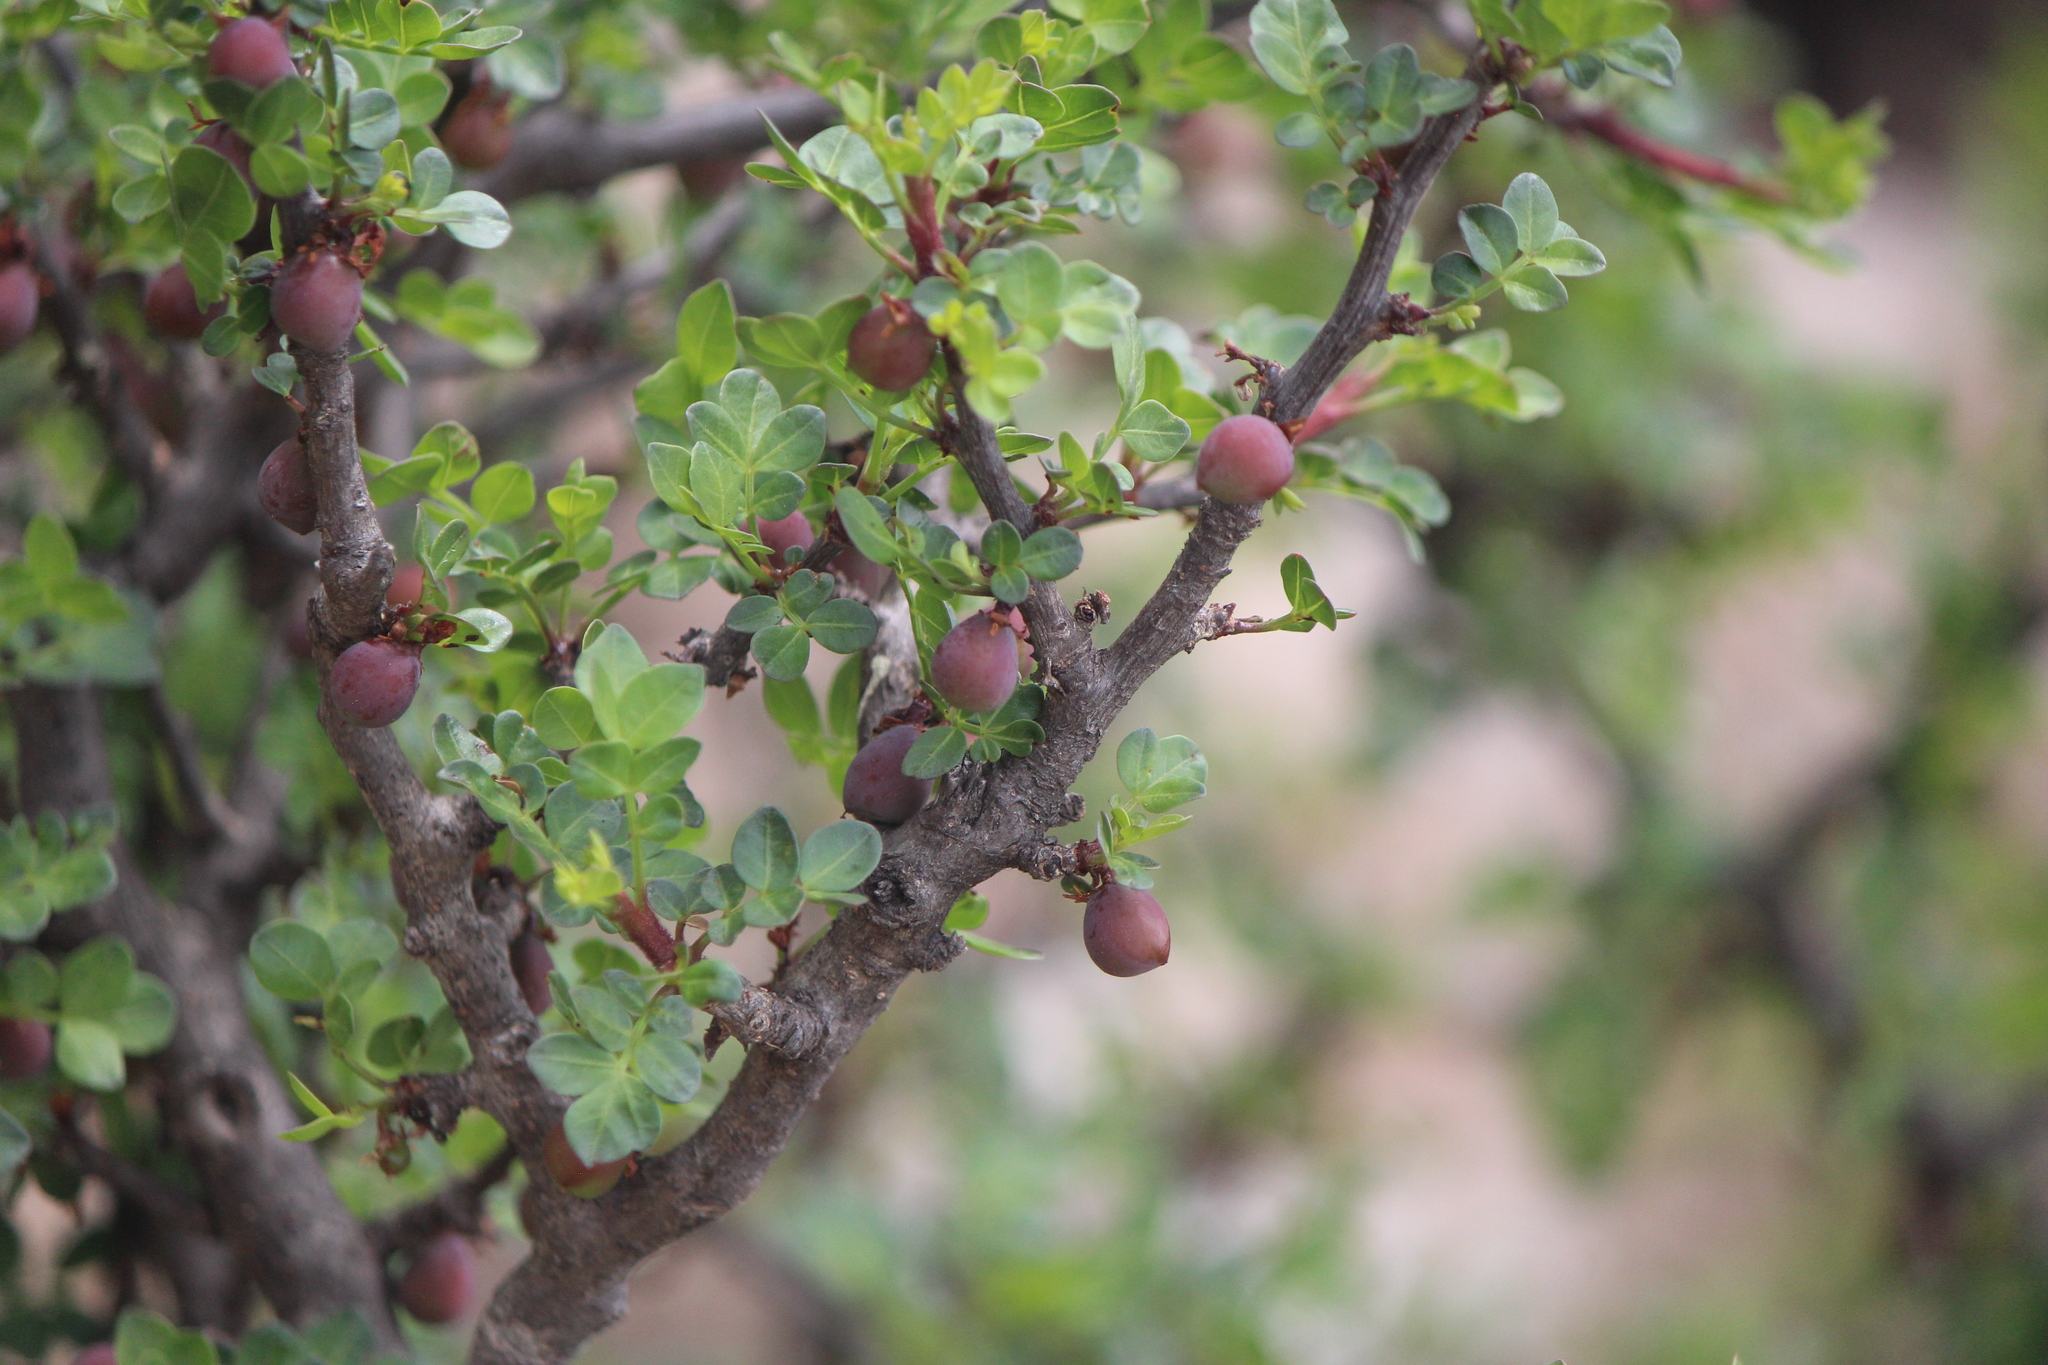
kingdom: Plantae
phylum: Tracheophyta
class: Magnoliopsida
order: Sapindales
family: Burseraceae
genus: Bursera
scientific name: Bursera fagaroides
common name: Elephant tree
